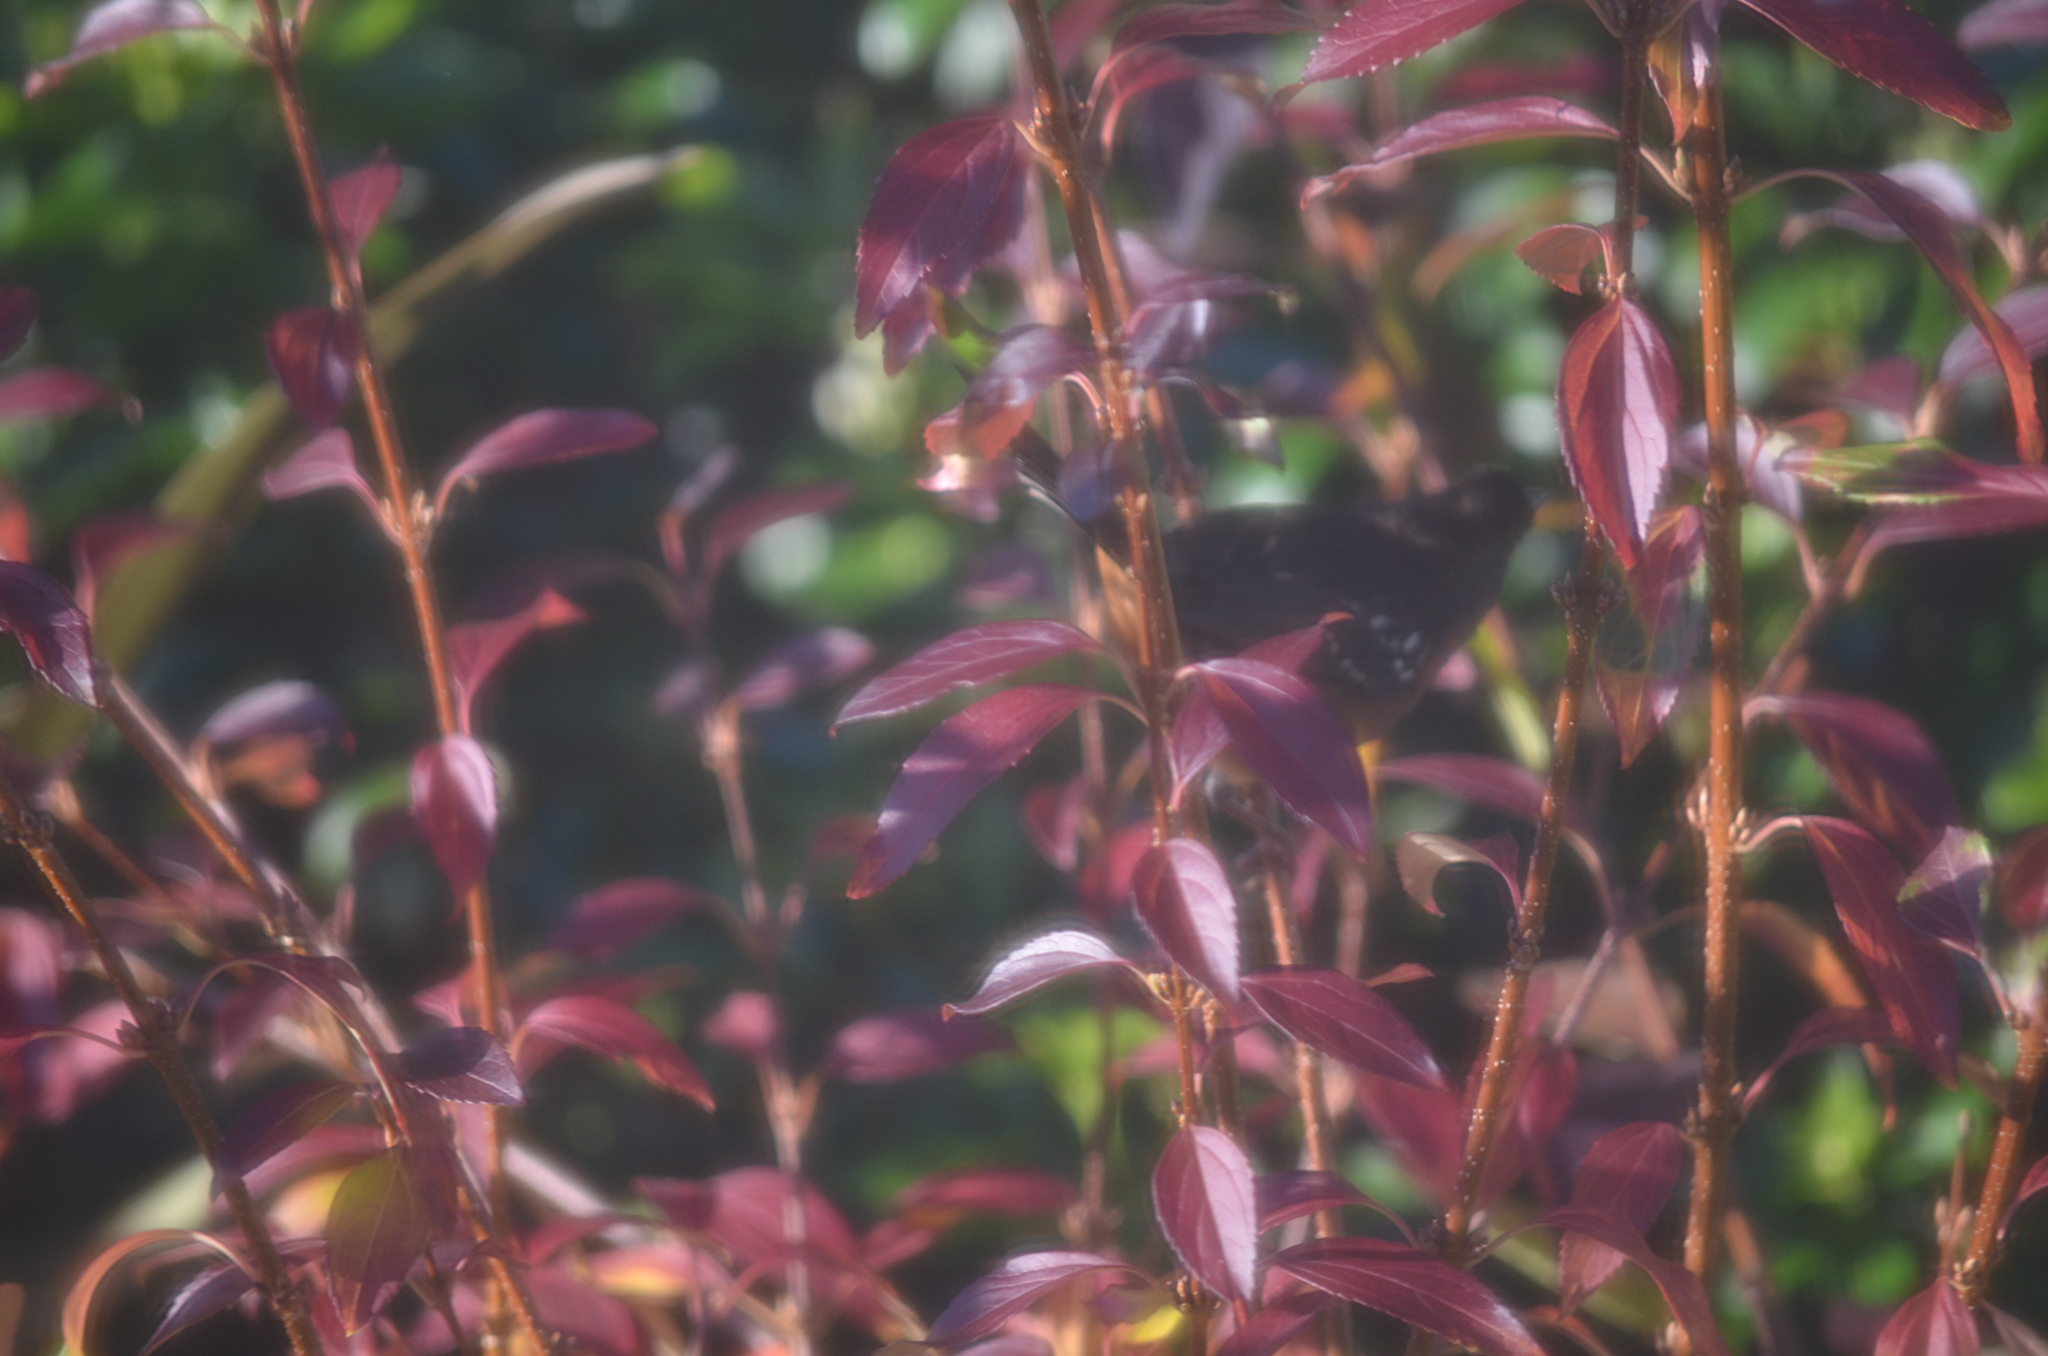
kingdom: Animalia
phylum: Chordata
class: Aves
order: Passeriformes
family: Passerellidae
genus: Pipilo
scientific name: Pipilo maculatus
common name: Spotted towhee
